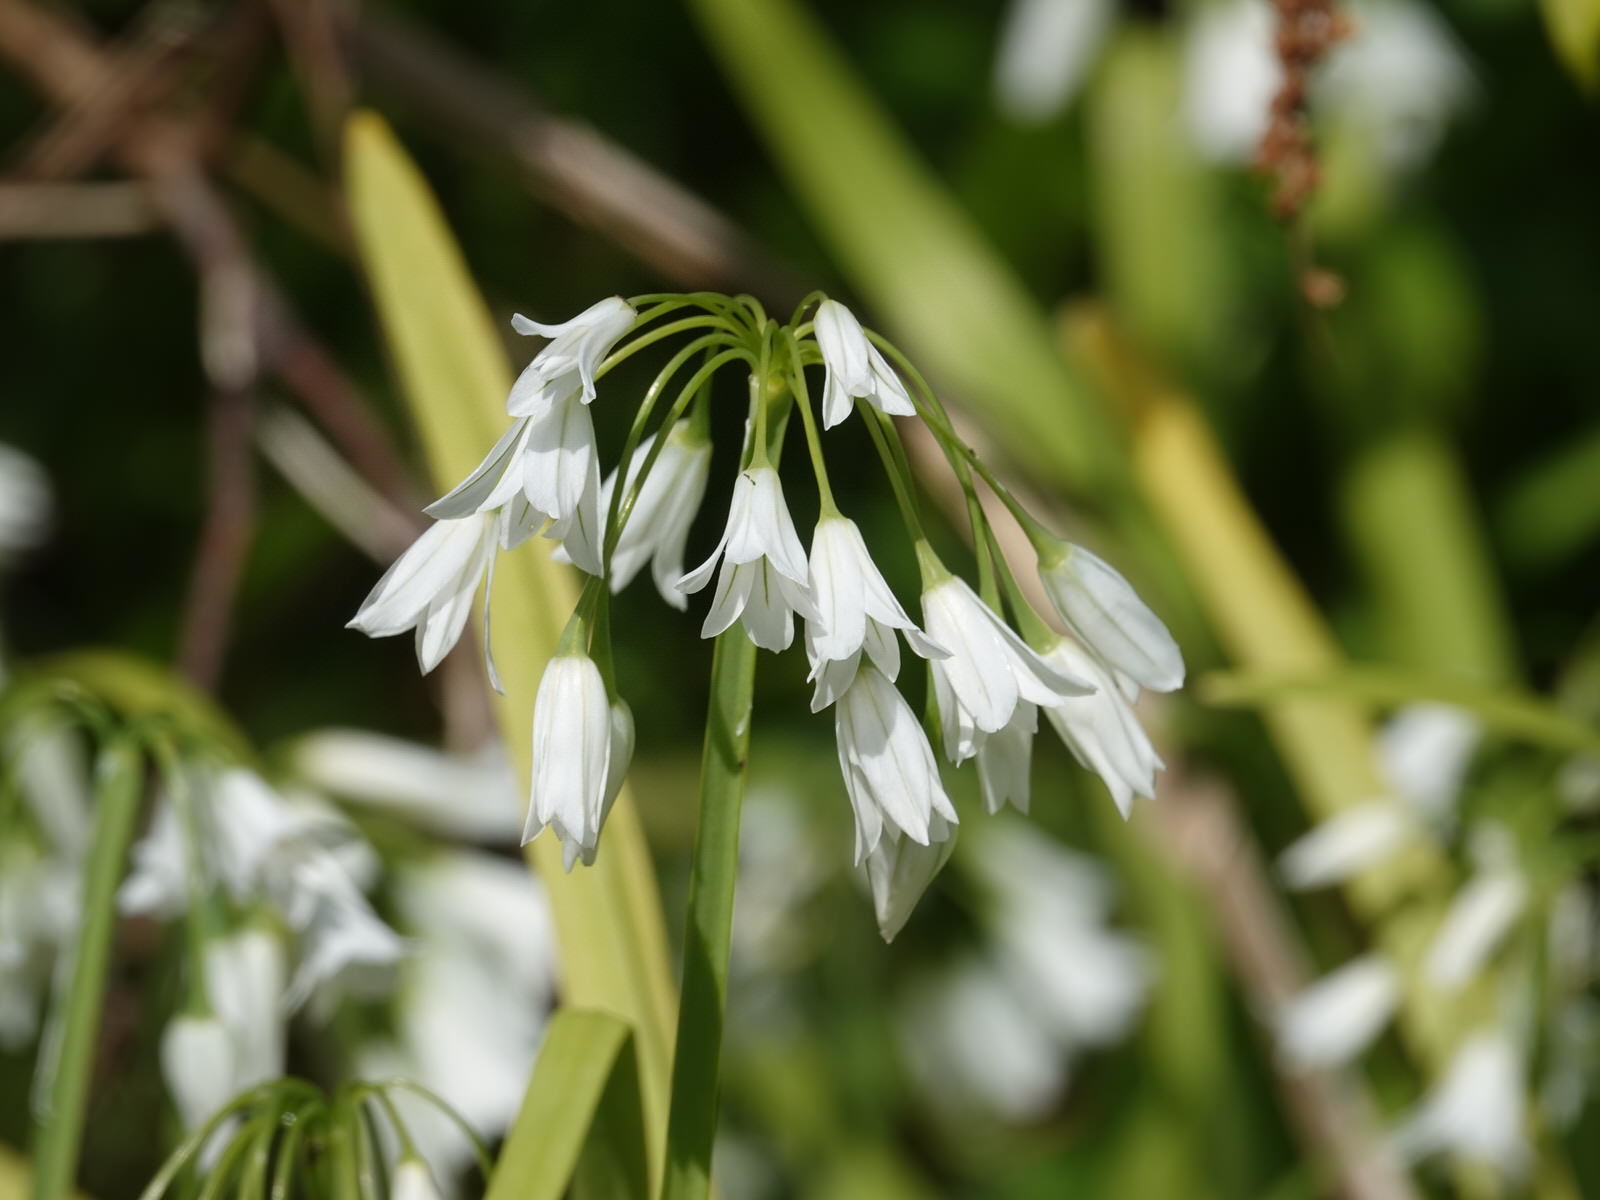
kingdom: Plantae
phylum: Tracheophyta
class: Liliopsida
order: Asparagales
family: Amaryllidaceae
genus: Allium
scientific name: Allium triquetrum
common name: Three-cornered garlic
